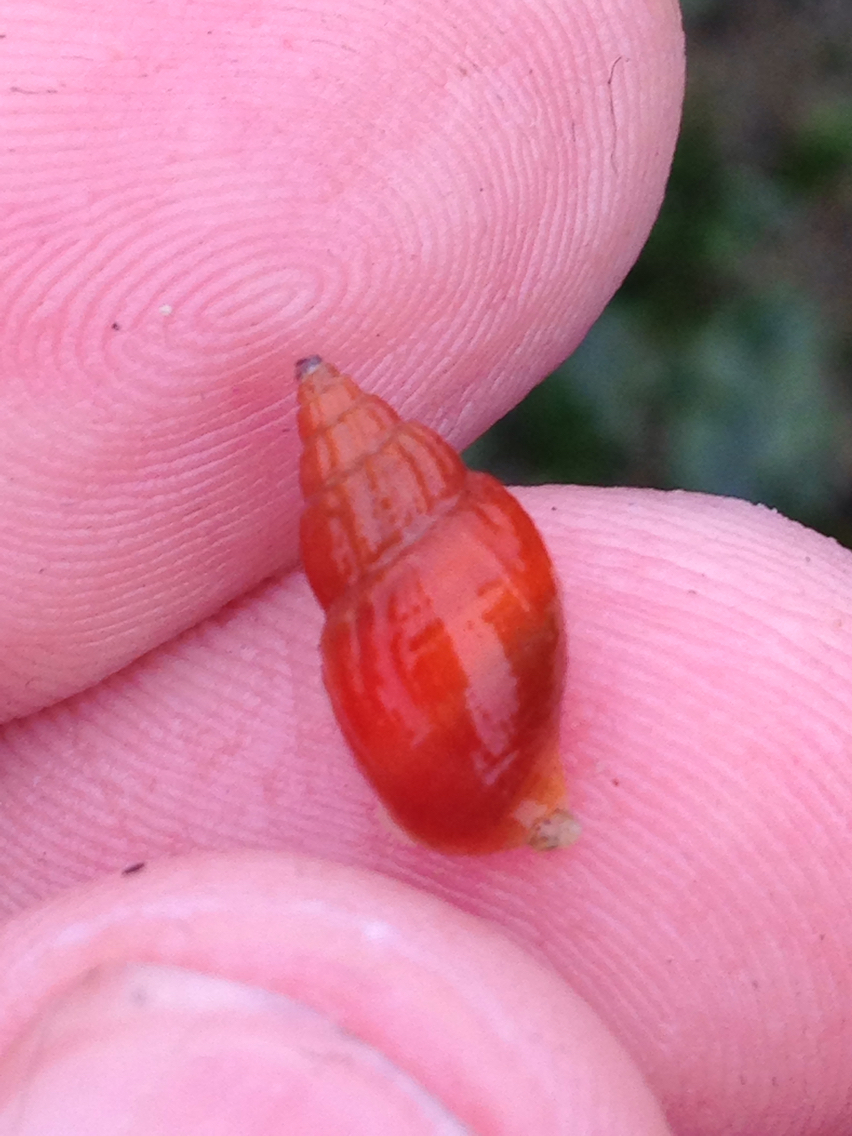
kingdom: Animalia
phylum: Mollusca
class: Gastropoda
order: Neogastropoda
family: Columbellidae
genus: Amphissa
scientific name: Amphissa versicolor
